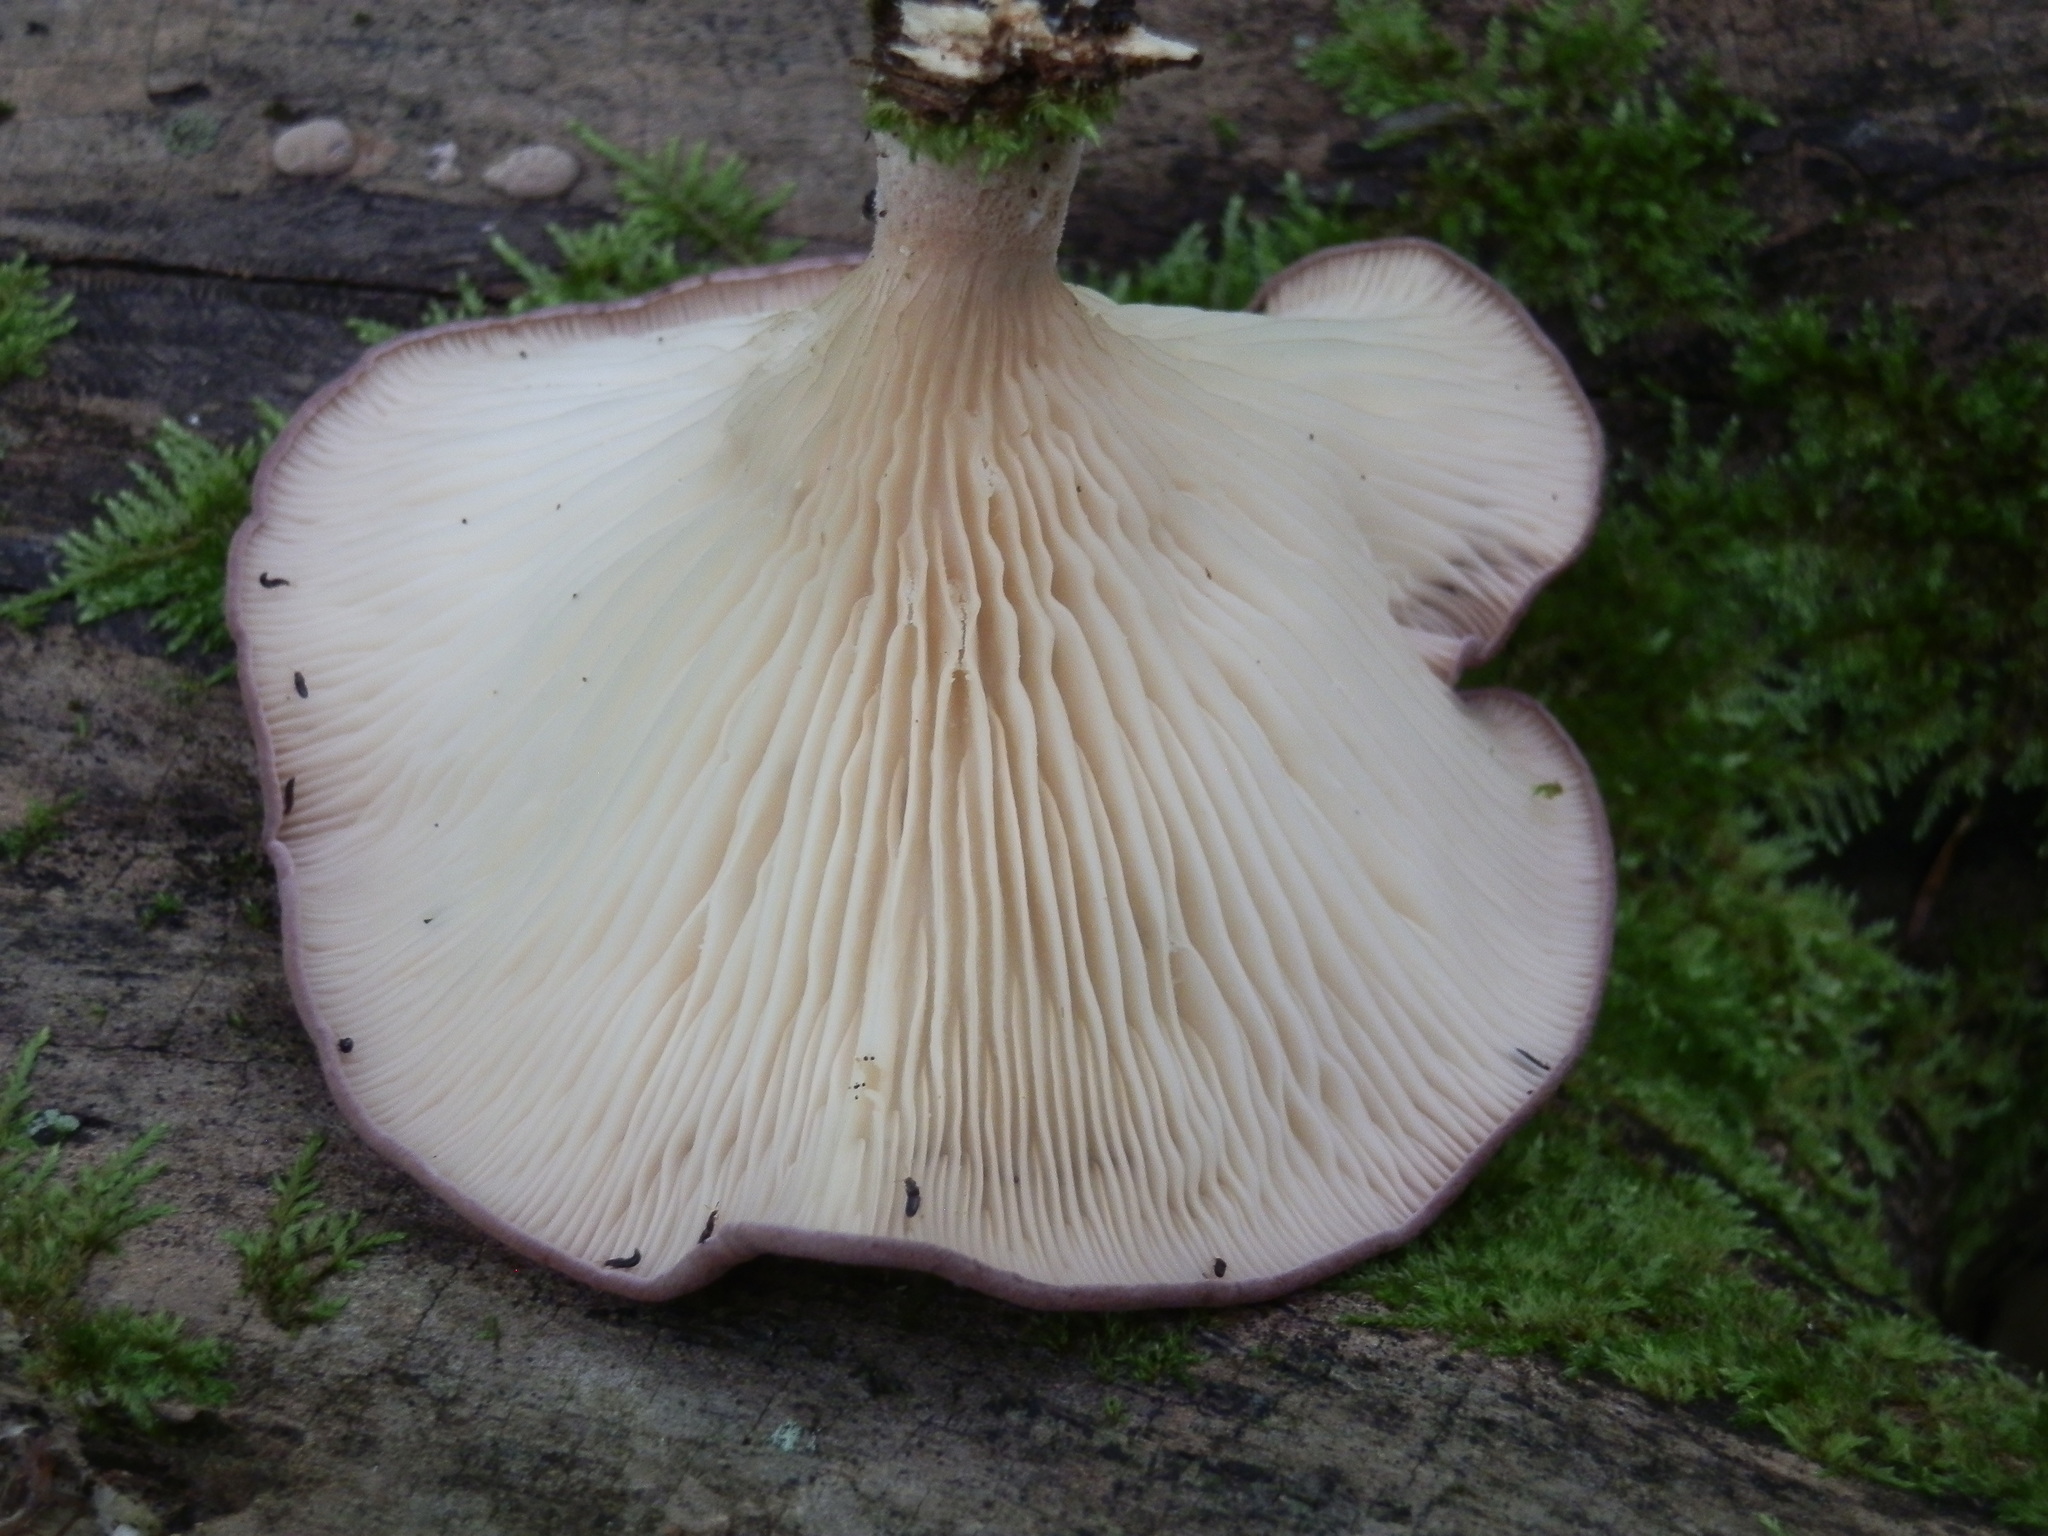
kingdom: Fungi
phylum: Basidiomycota
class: Agaricomycetes
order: Polyporales
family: Panaceae
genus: Panus
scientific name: Panus conchatus
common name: Lilac oysterling
